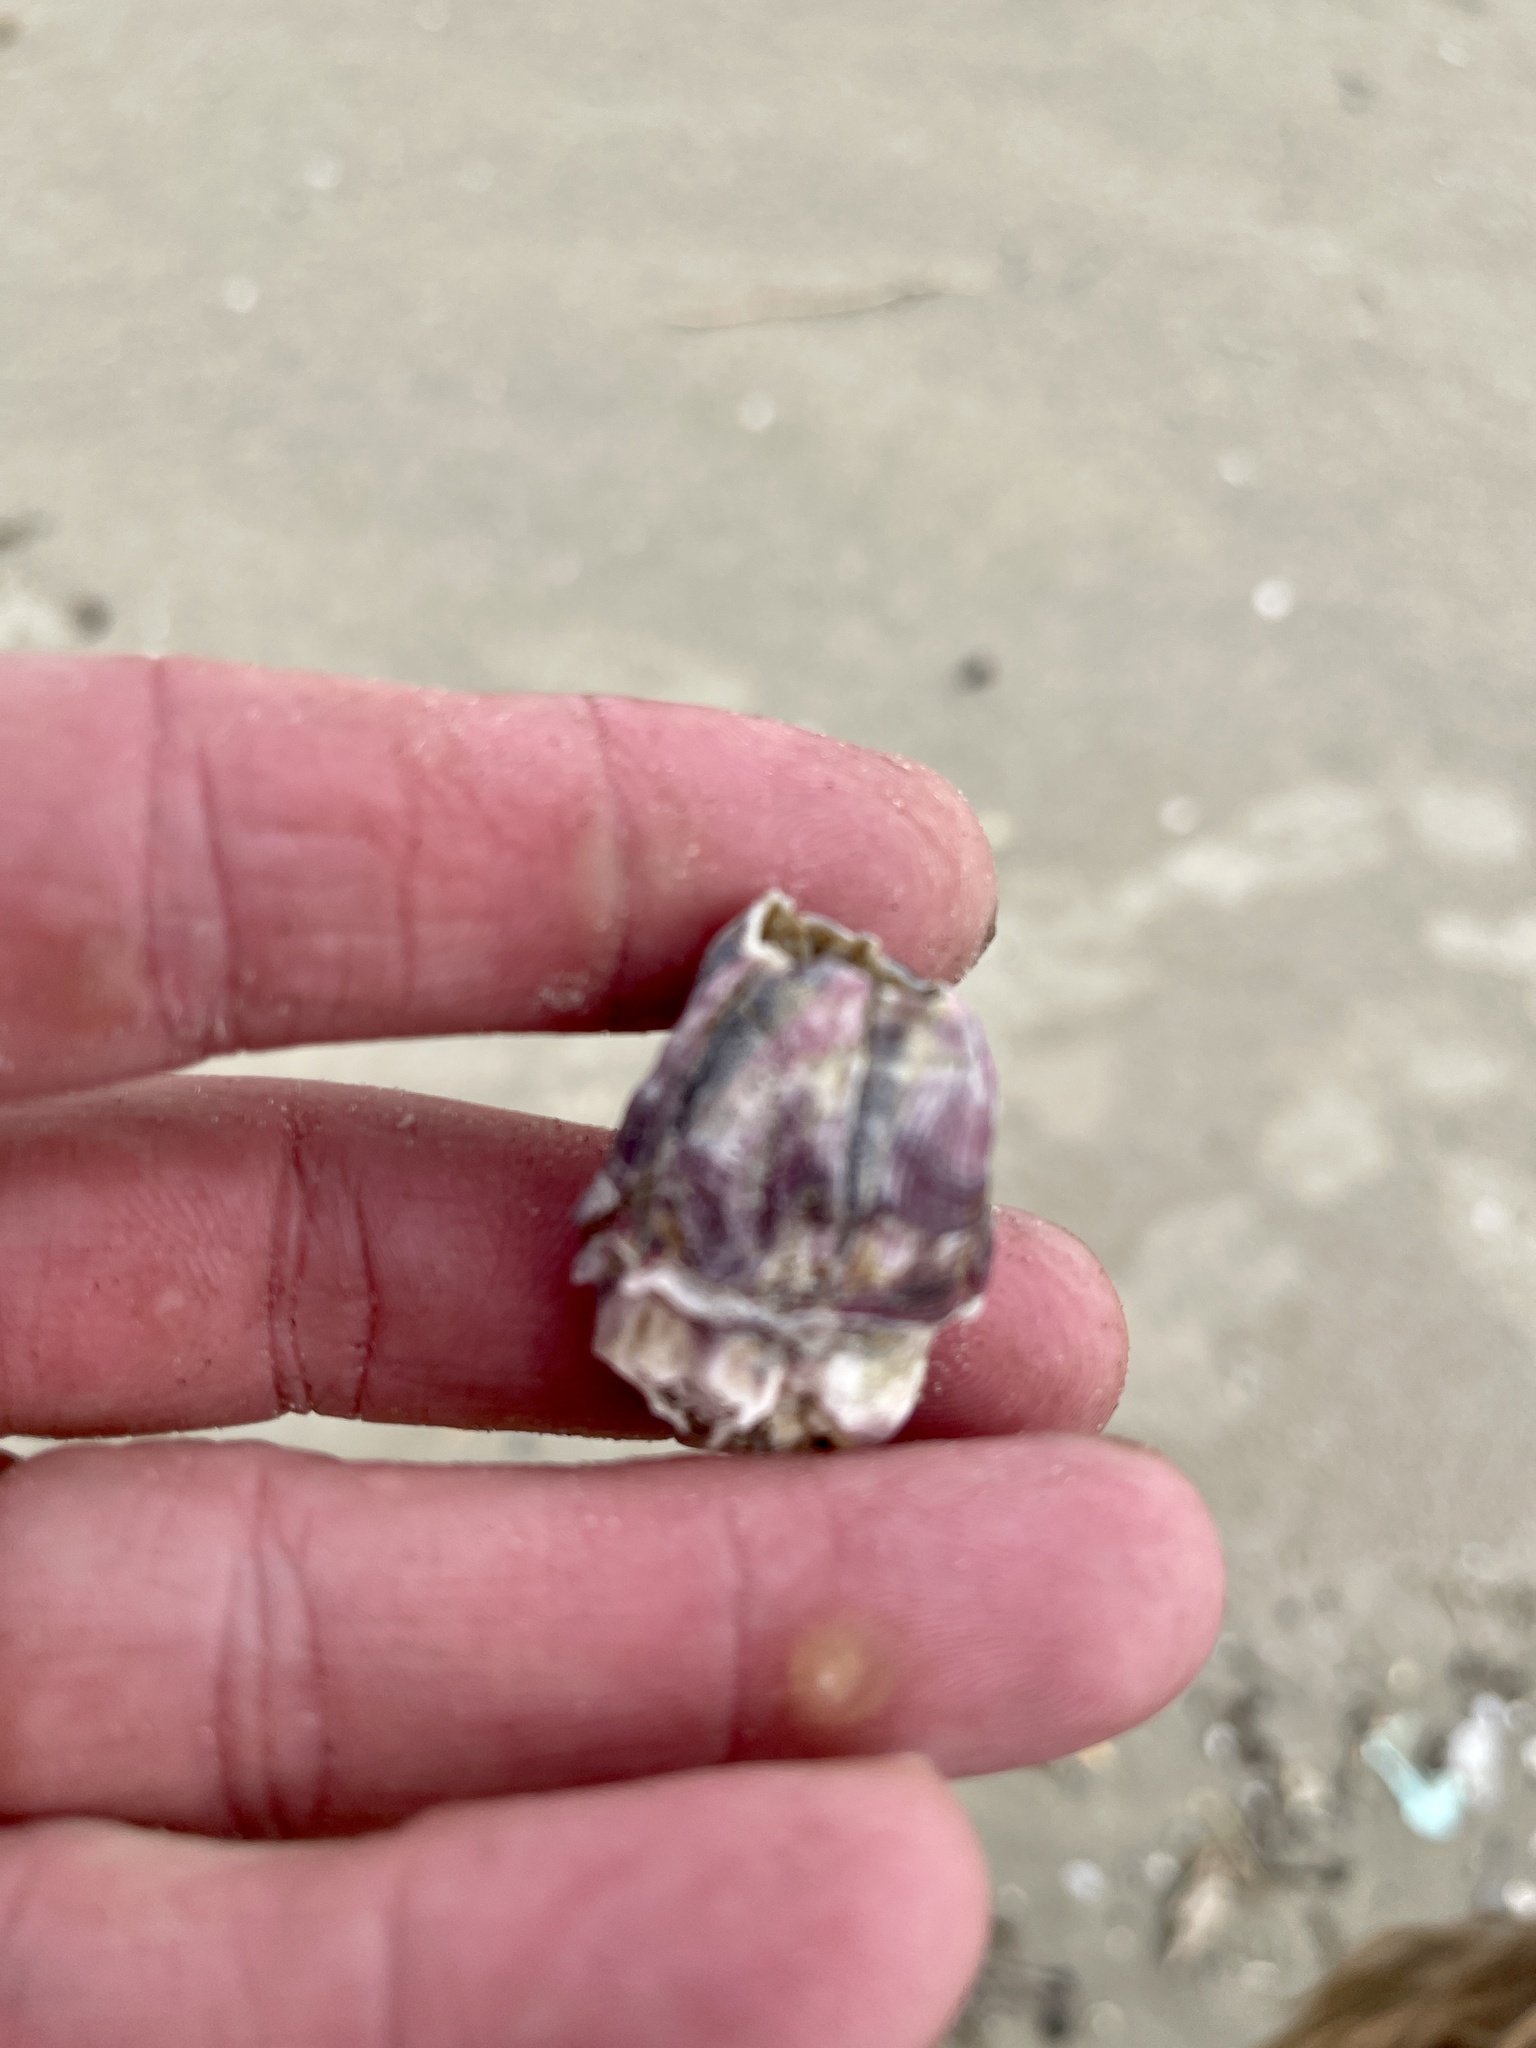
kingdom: Animalia
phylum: Arthropoda
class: Maxillopoda
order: Sessilia
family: Balanidae
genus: Megabalanus
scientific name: Megabalanus tintinnabulum
